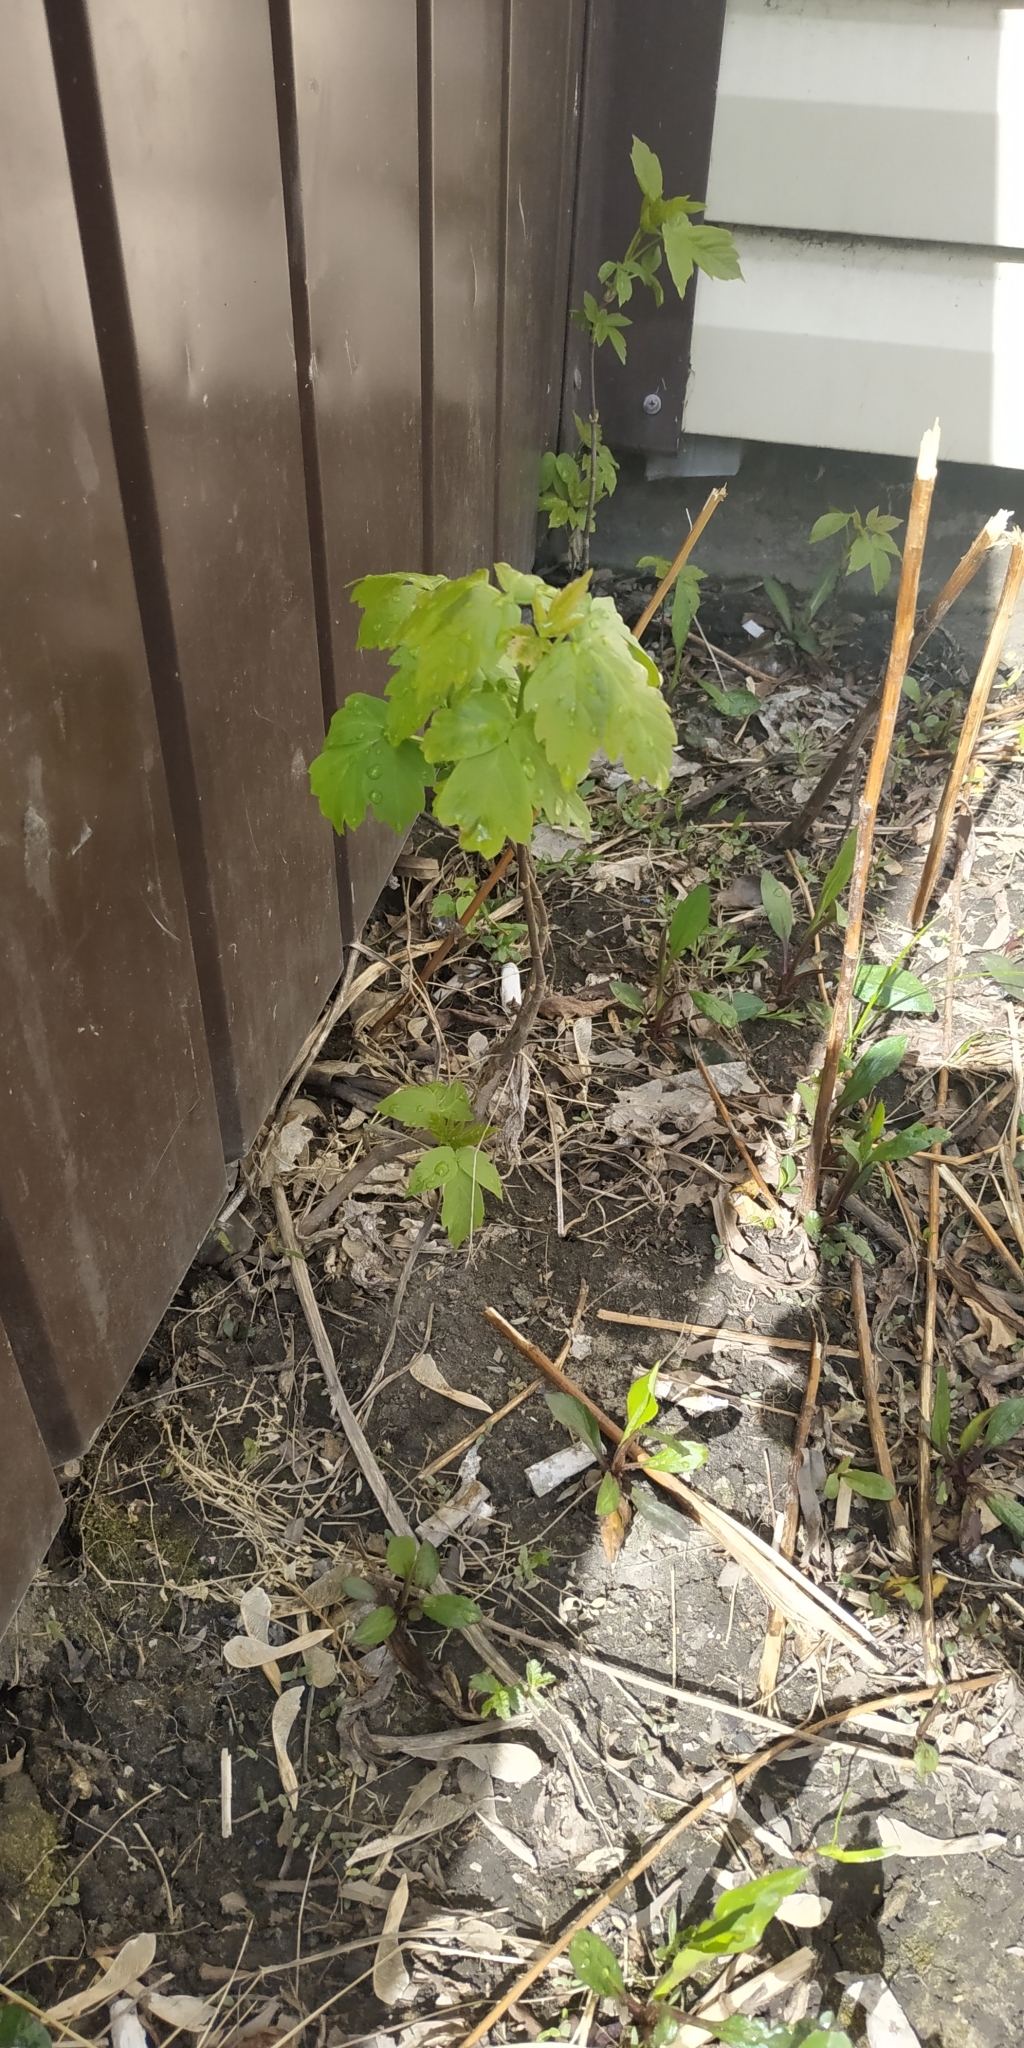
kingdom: Plantae
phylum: Tracheophyta
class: Magnoliopsida
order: Sapindales
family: Sapindaceae
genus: Acer
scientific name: Acer negundo
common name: Ashleaf maple
